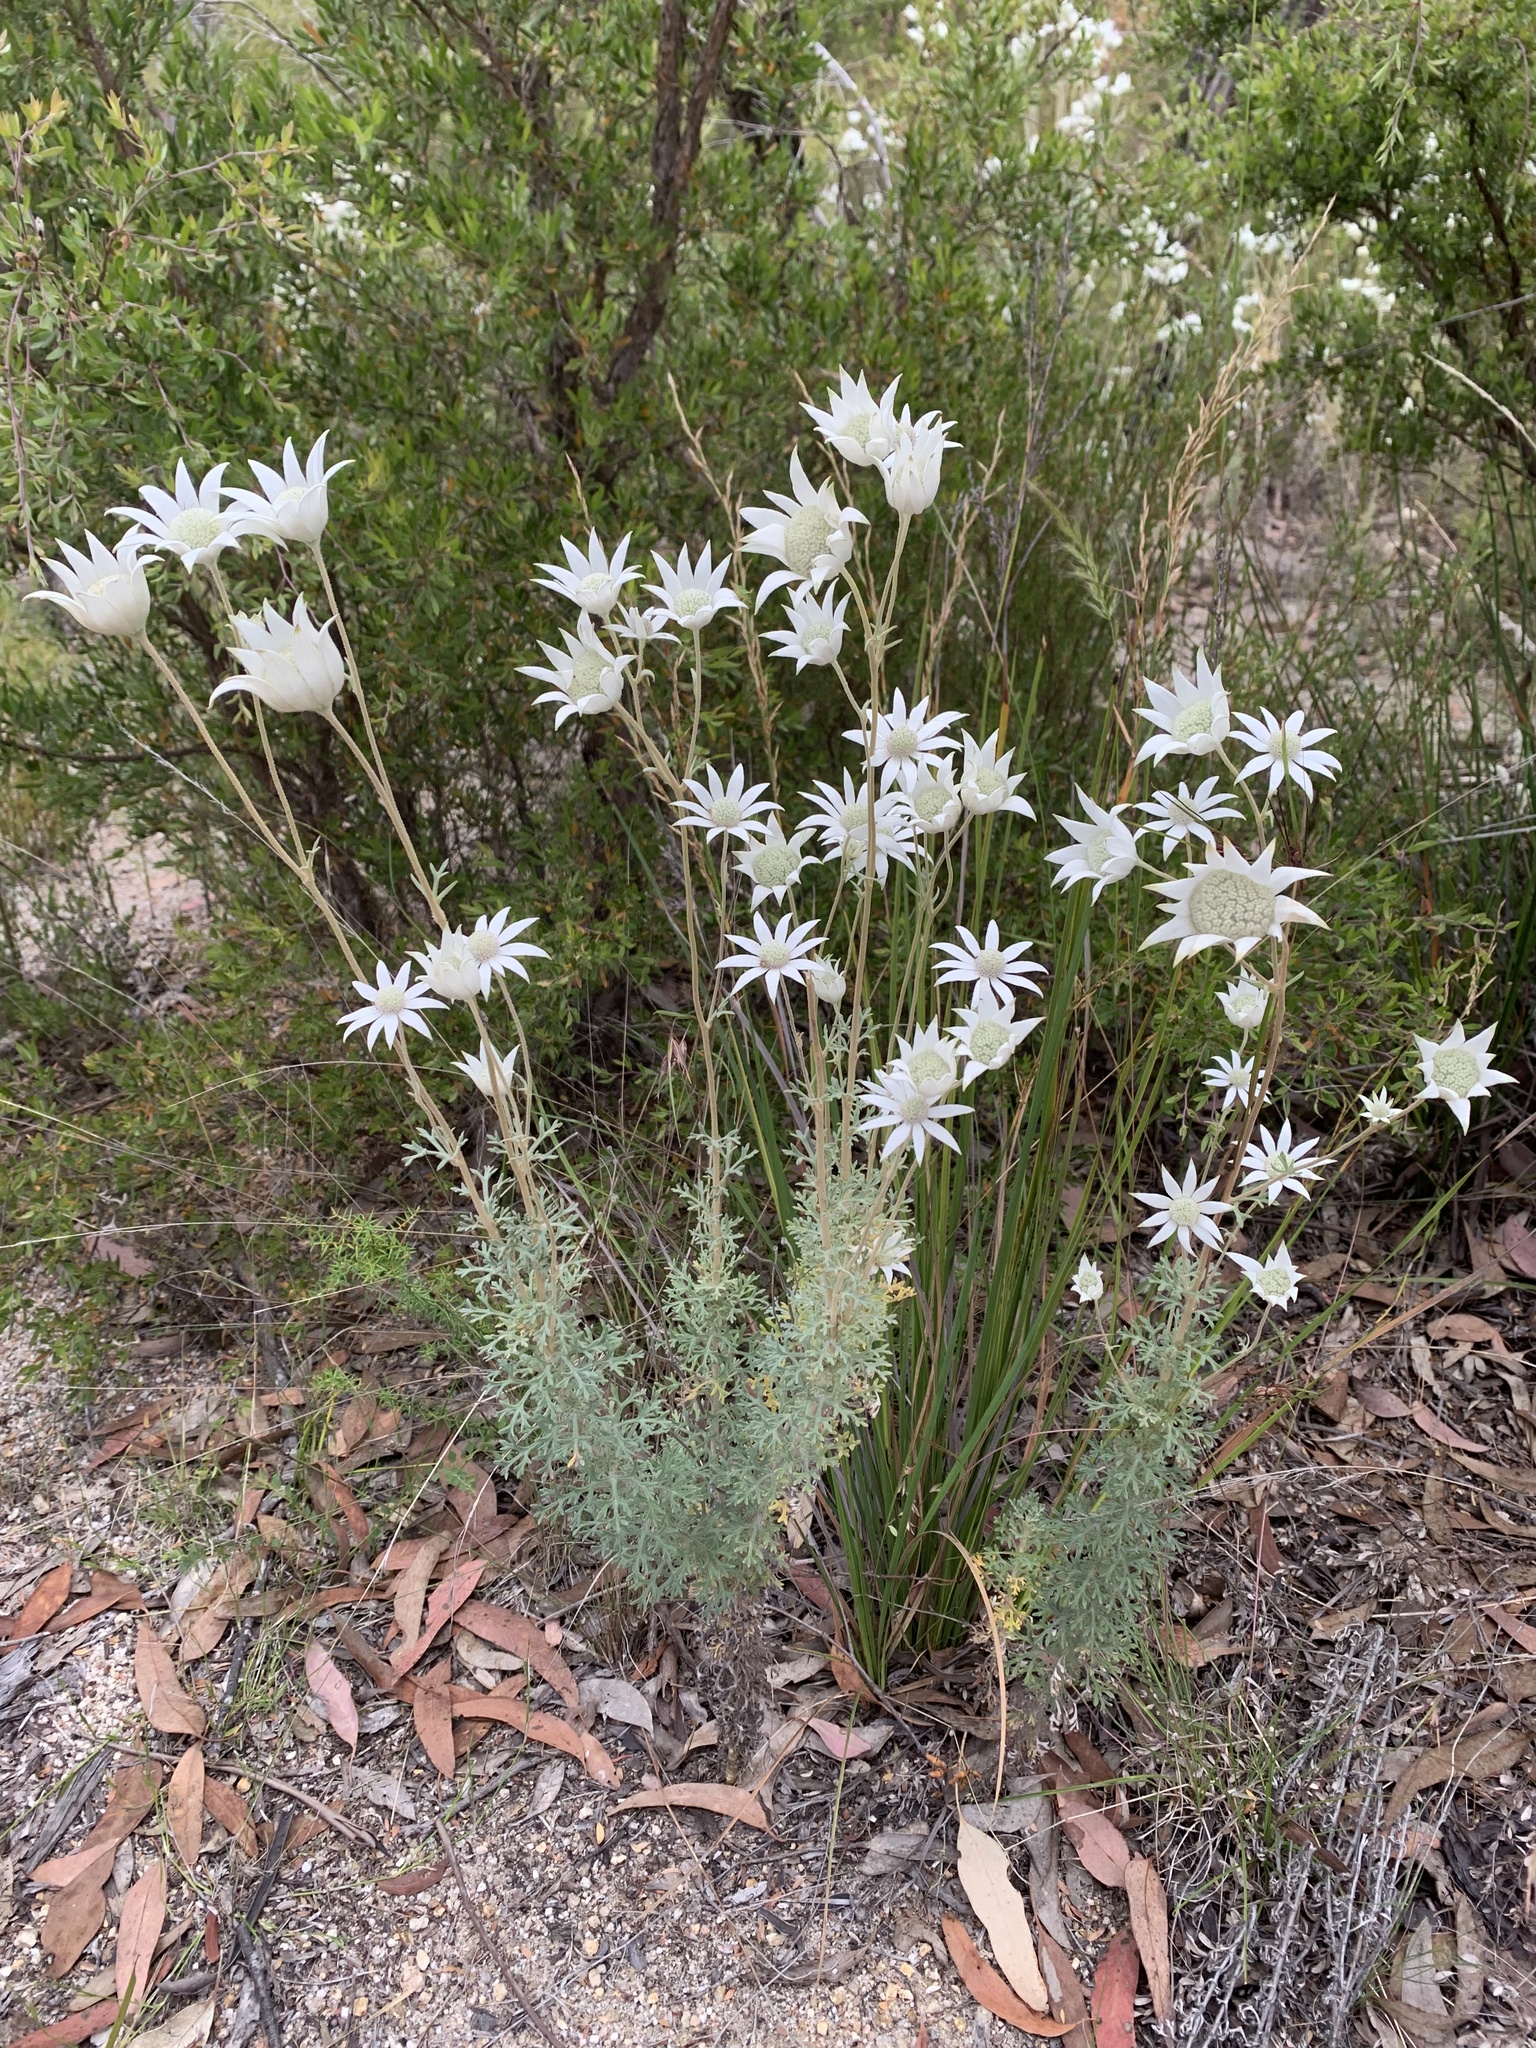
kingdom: Plantae
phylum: Tracheophyta
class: Magnoliopsida
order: Apiales
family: Apiaceae
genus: Actinotus
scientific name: Actinotus helianthi
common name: Flannel-flower
